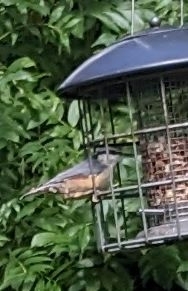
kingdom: Animalia
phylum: Chordata
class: Aves
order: Passeriformes
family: Sittidae
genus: Sitta
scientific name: Sitta europaea
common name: Eurasian nuthatch
